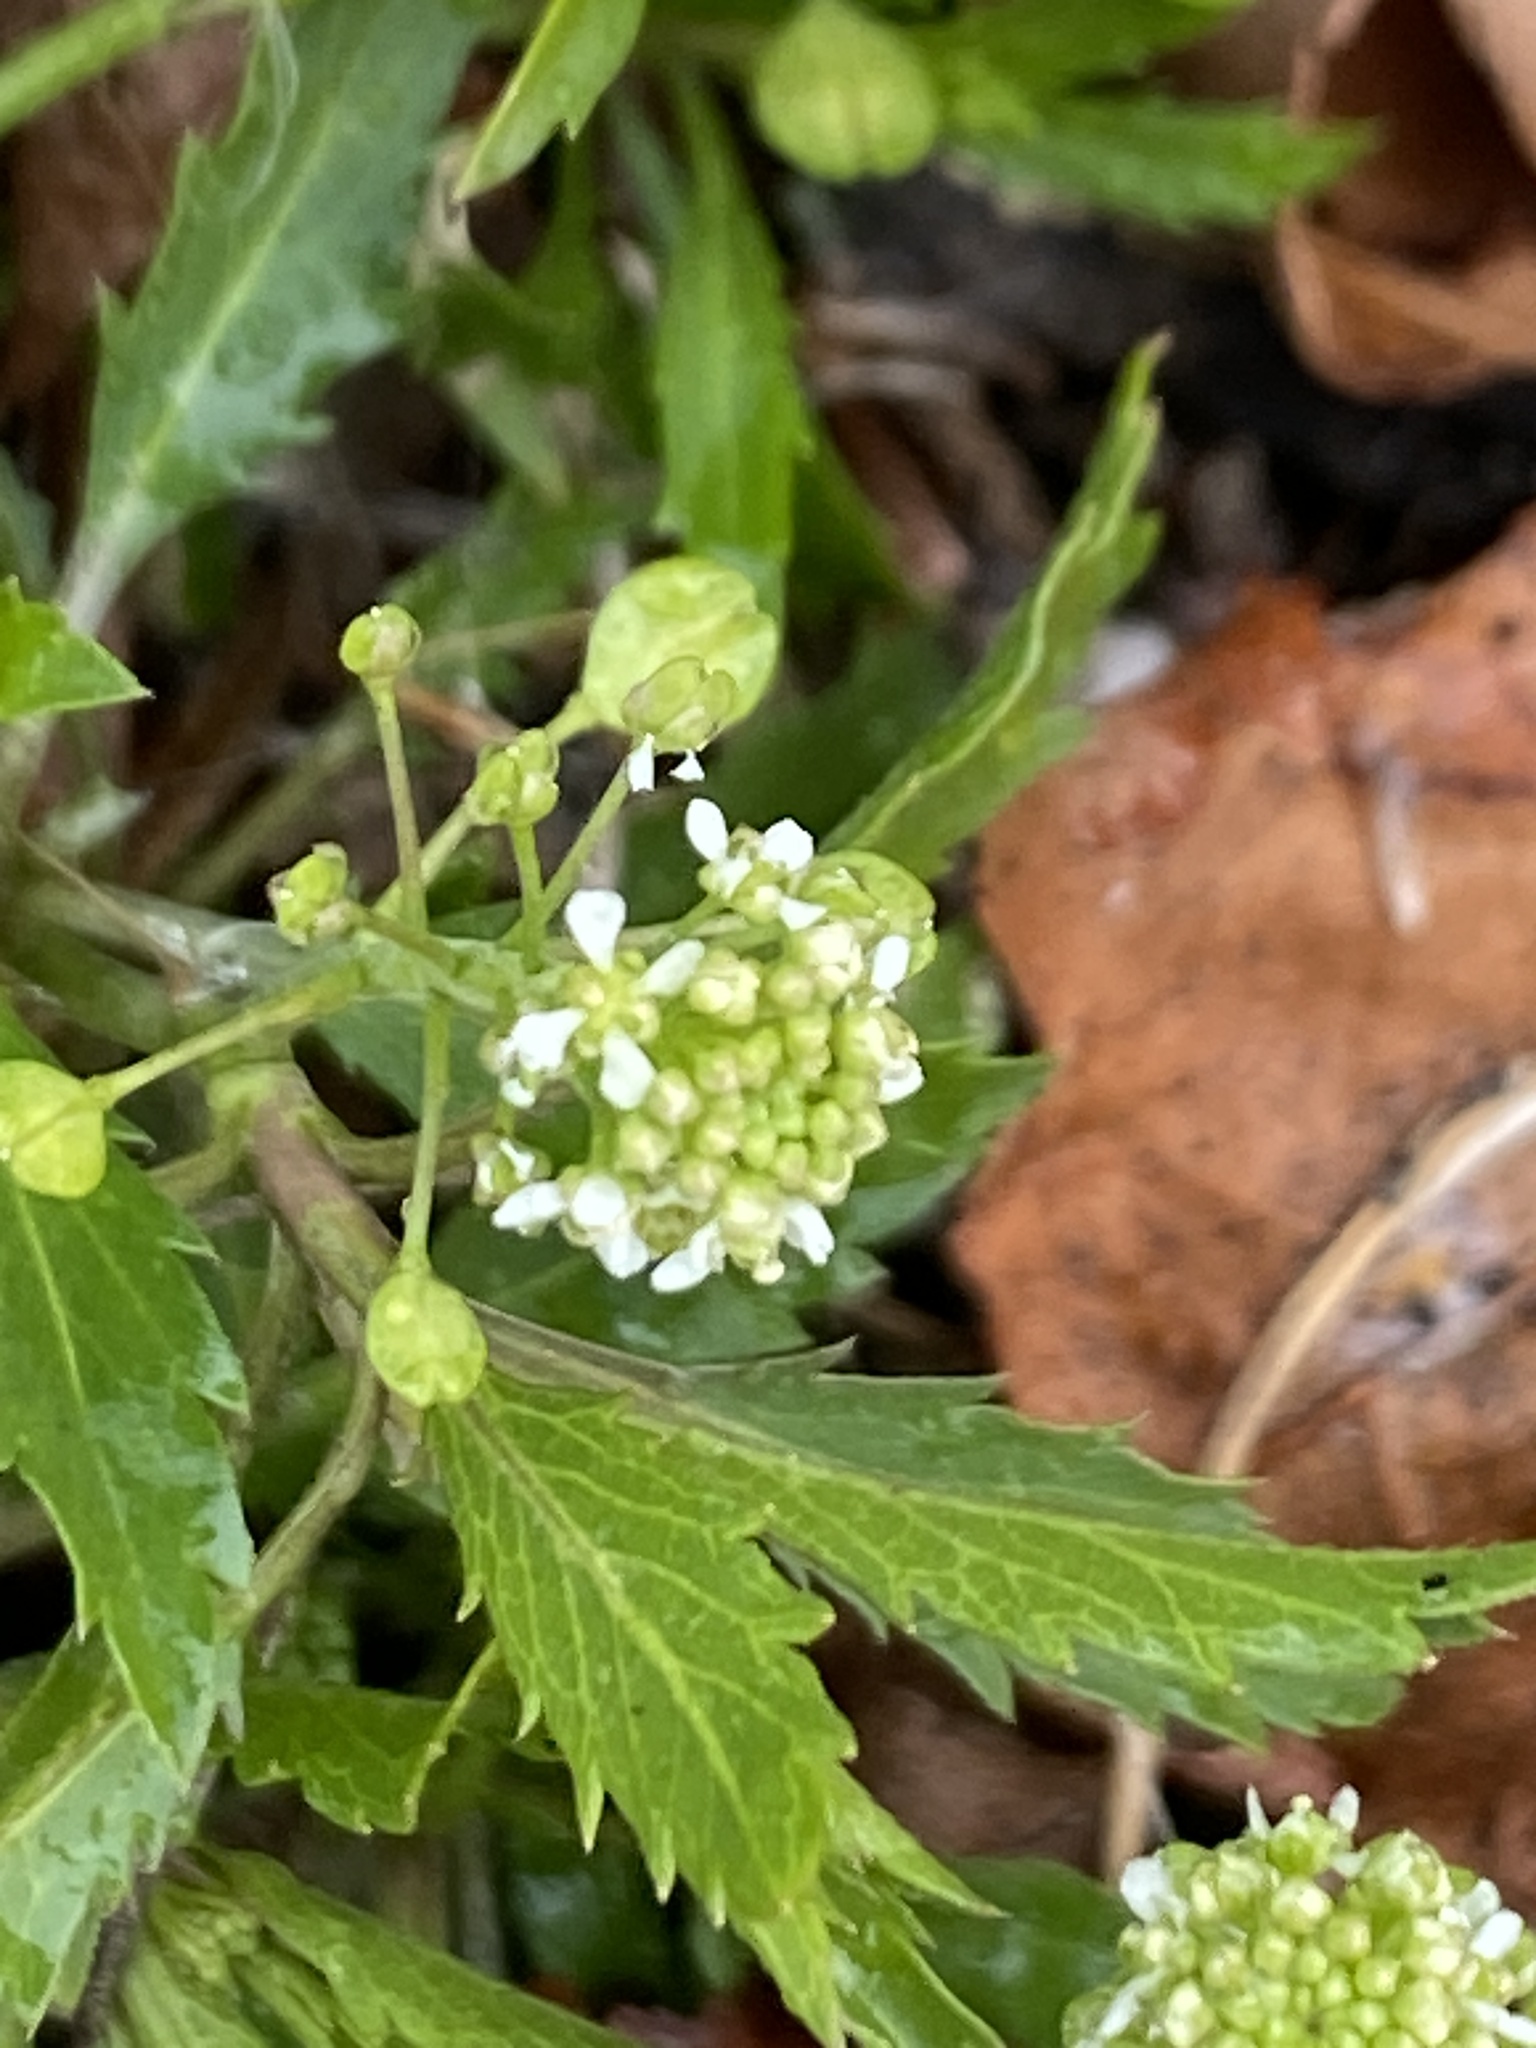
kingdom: Plantae
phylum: Tracheophyta
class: Magnoliopsida
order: Brassicales
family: Brassicaceae
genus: Lepidium
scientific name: Lepidium virginicum
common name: Least pepperwort
